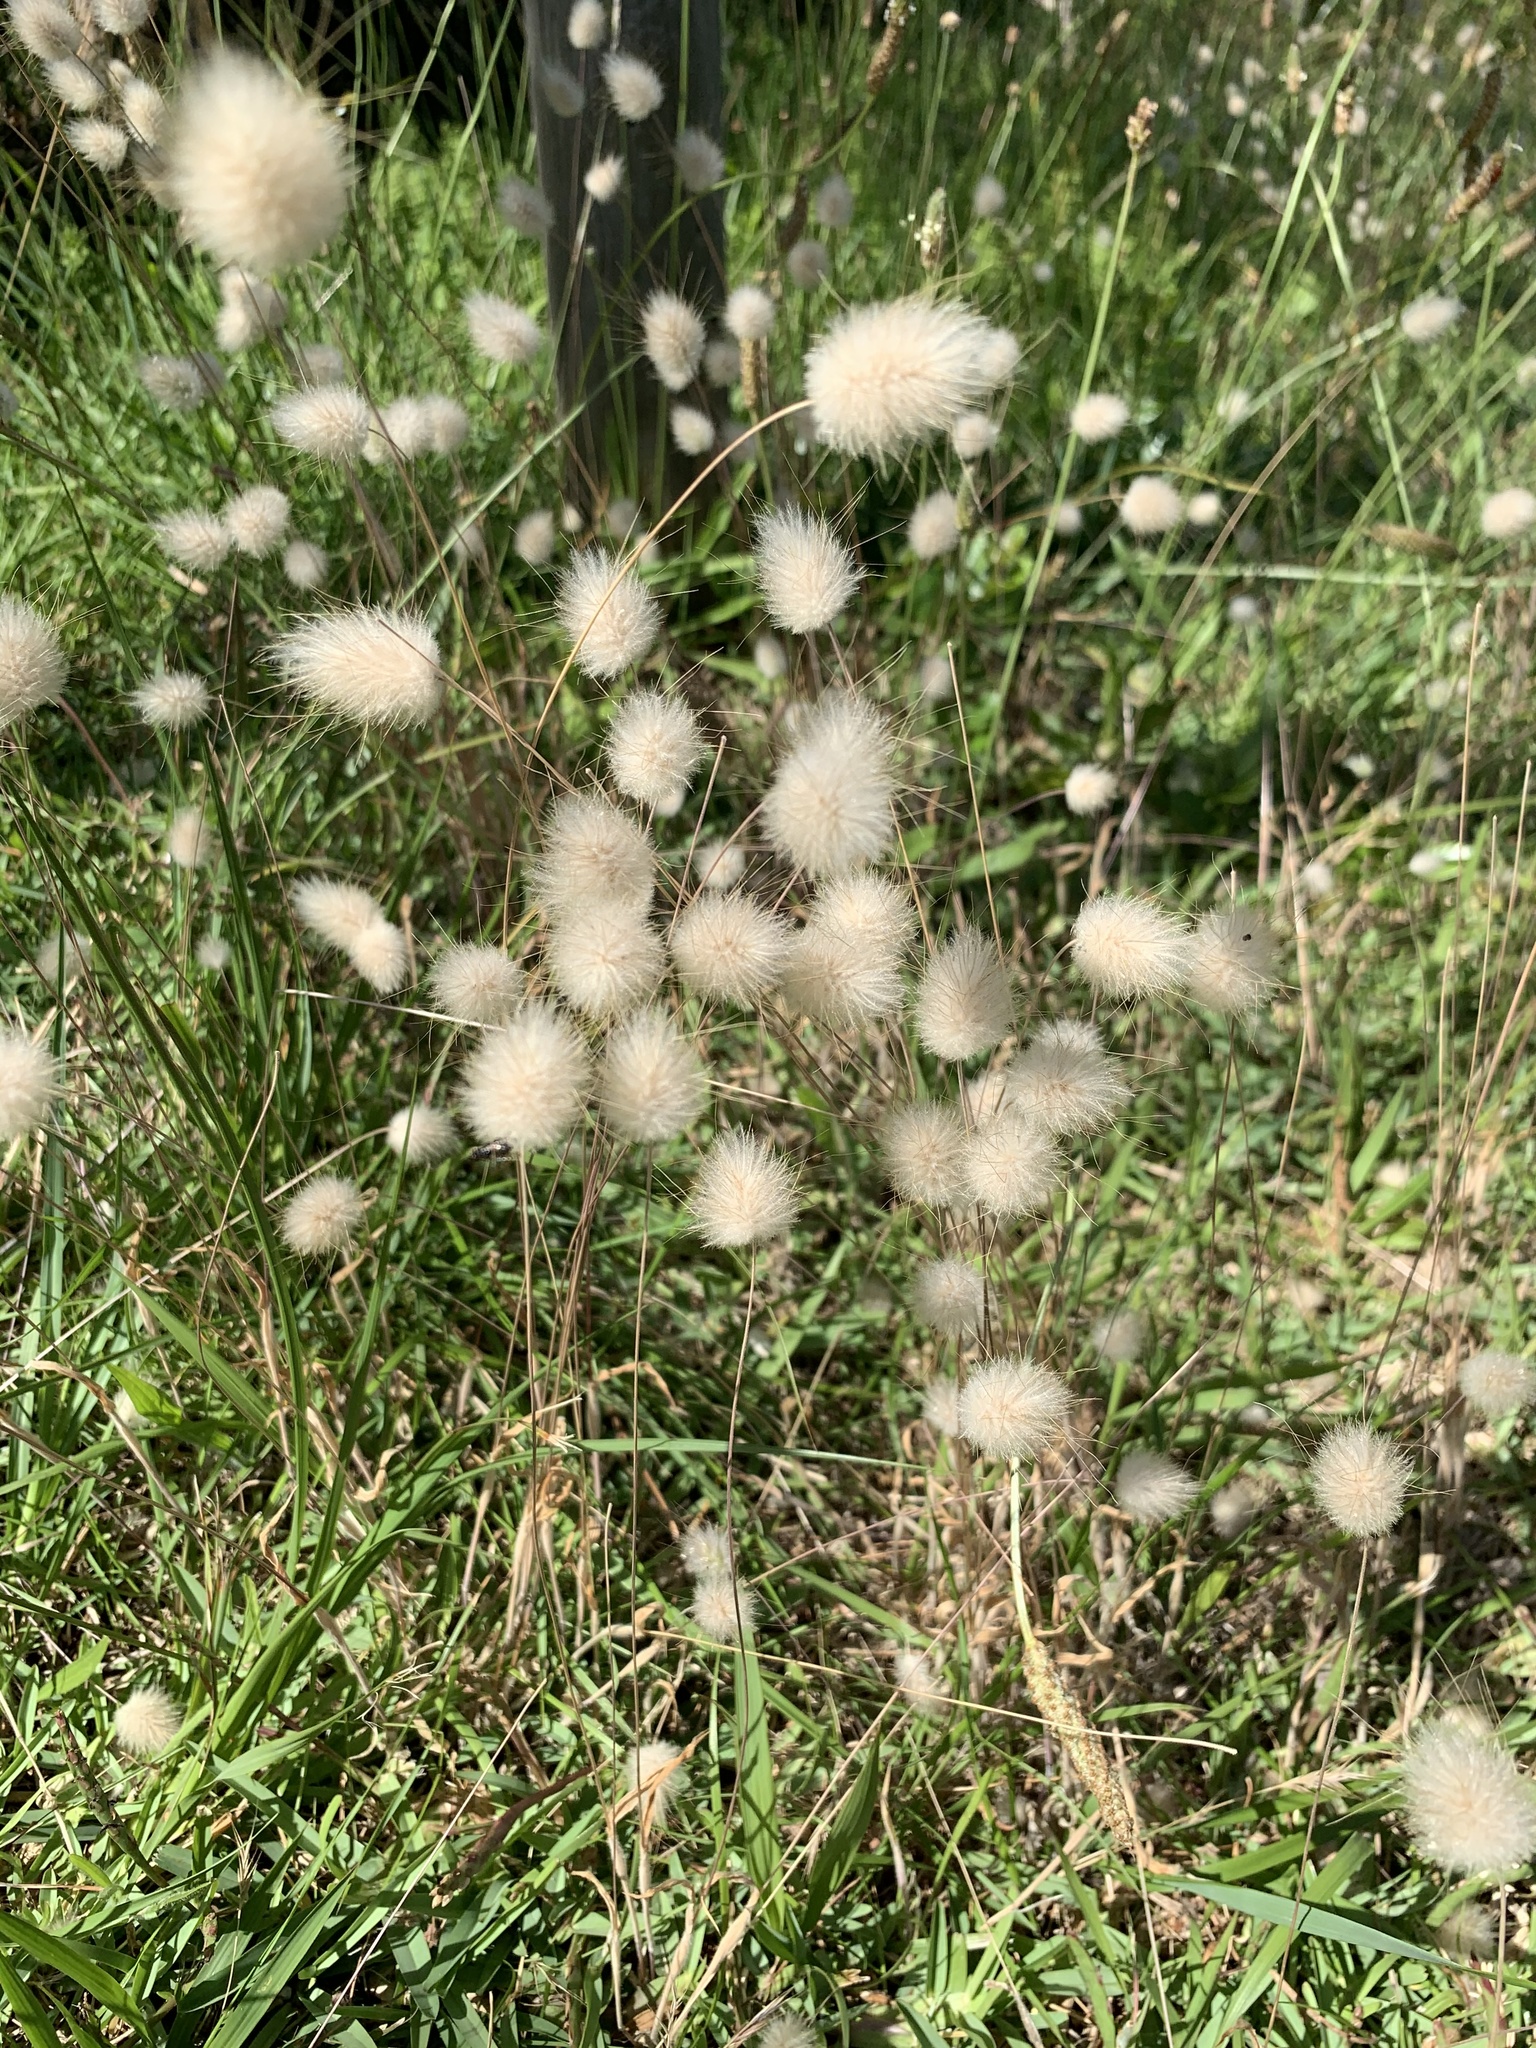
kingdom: Plantae
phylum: Tracheophyta
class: Liliopsida
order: Poales
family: Poaceae
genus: Lagurus
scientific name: Lagurus ovatus
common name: Hare's-tail
